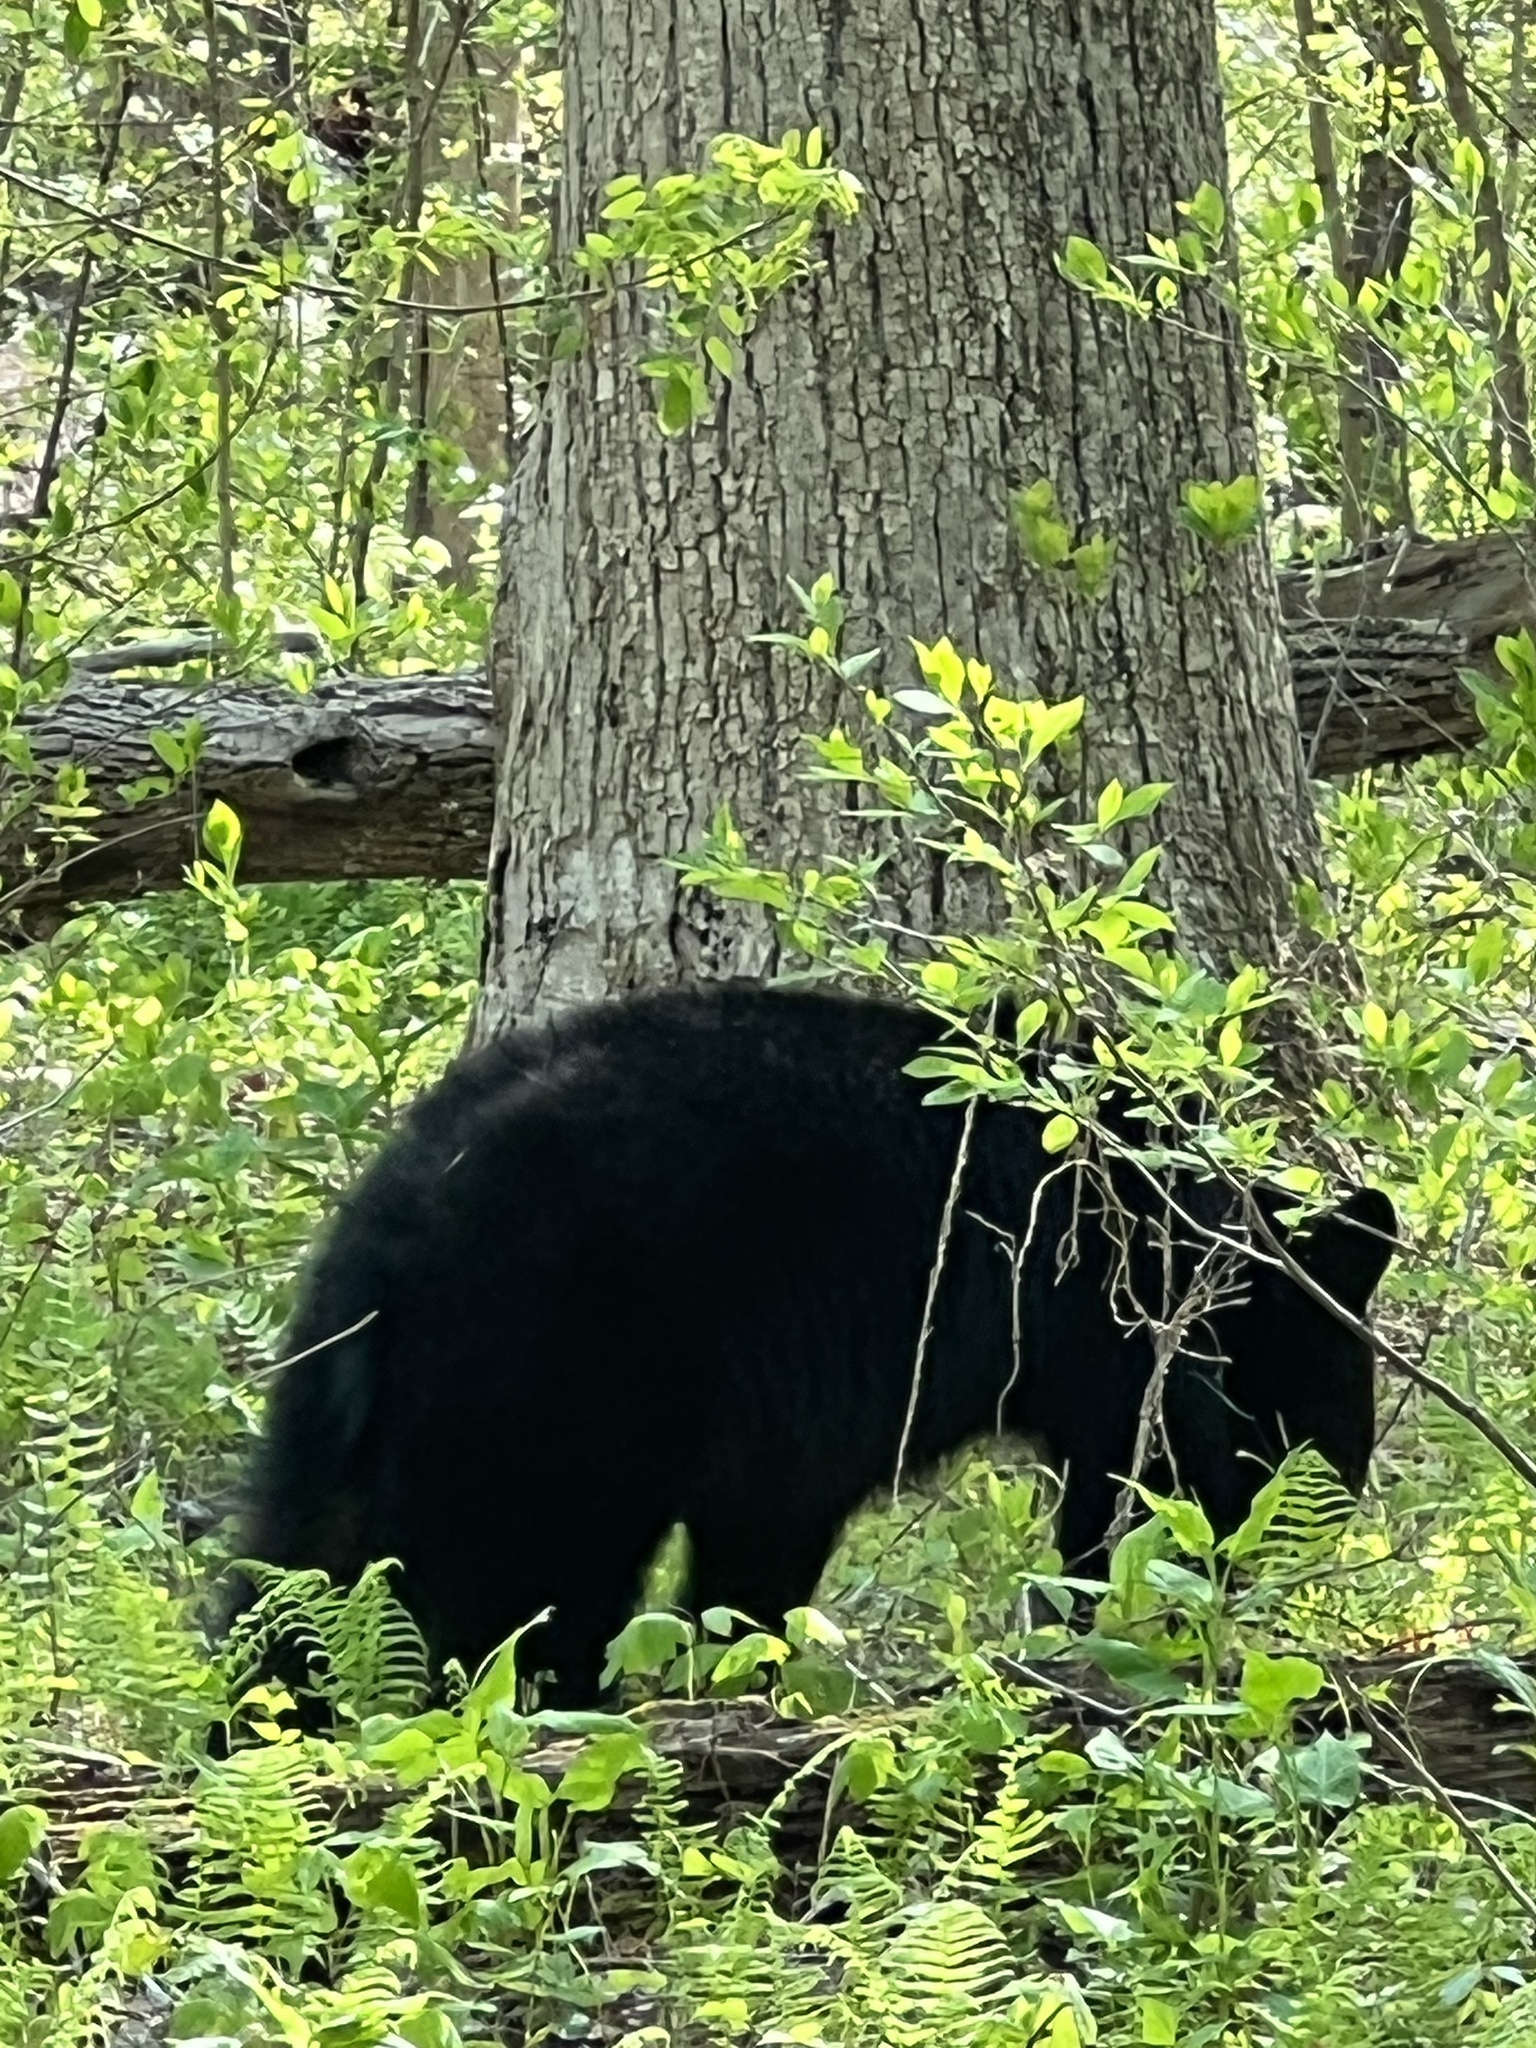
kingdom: Animalia
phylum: Chordata
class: Mammalia
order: Carnivora
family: Ursidae
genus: Ursus
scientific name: Ursus americanus
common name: American black bear
